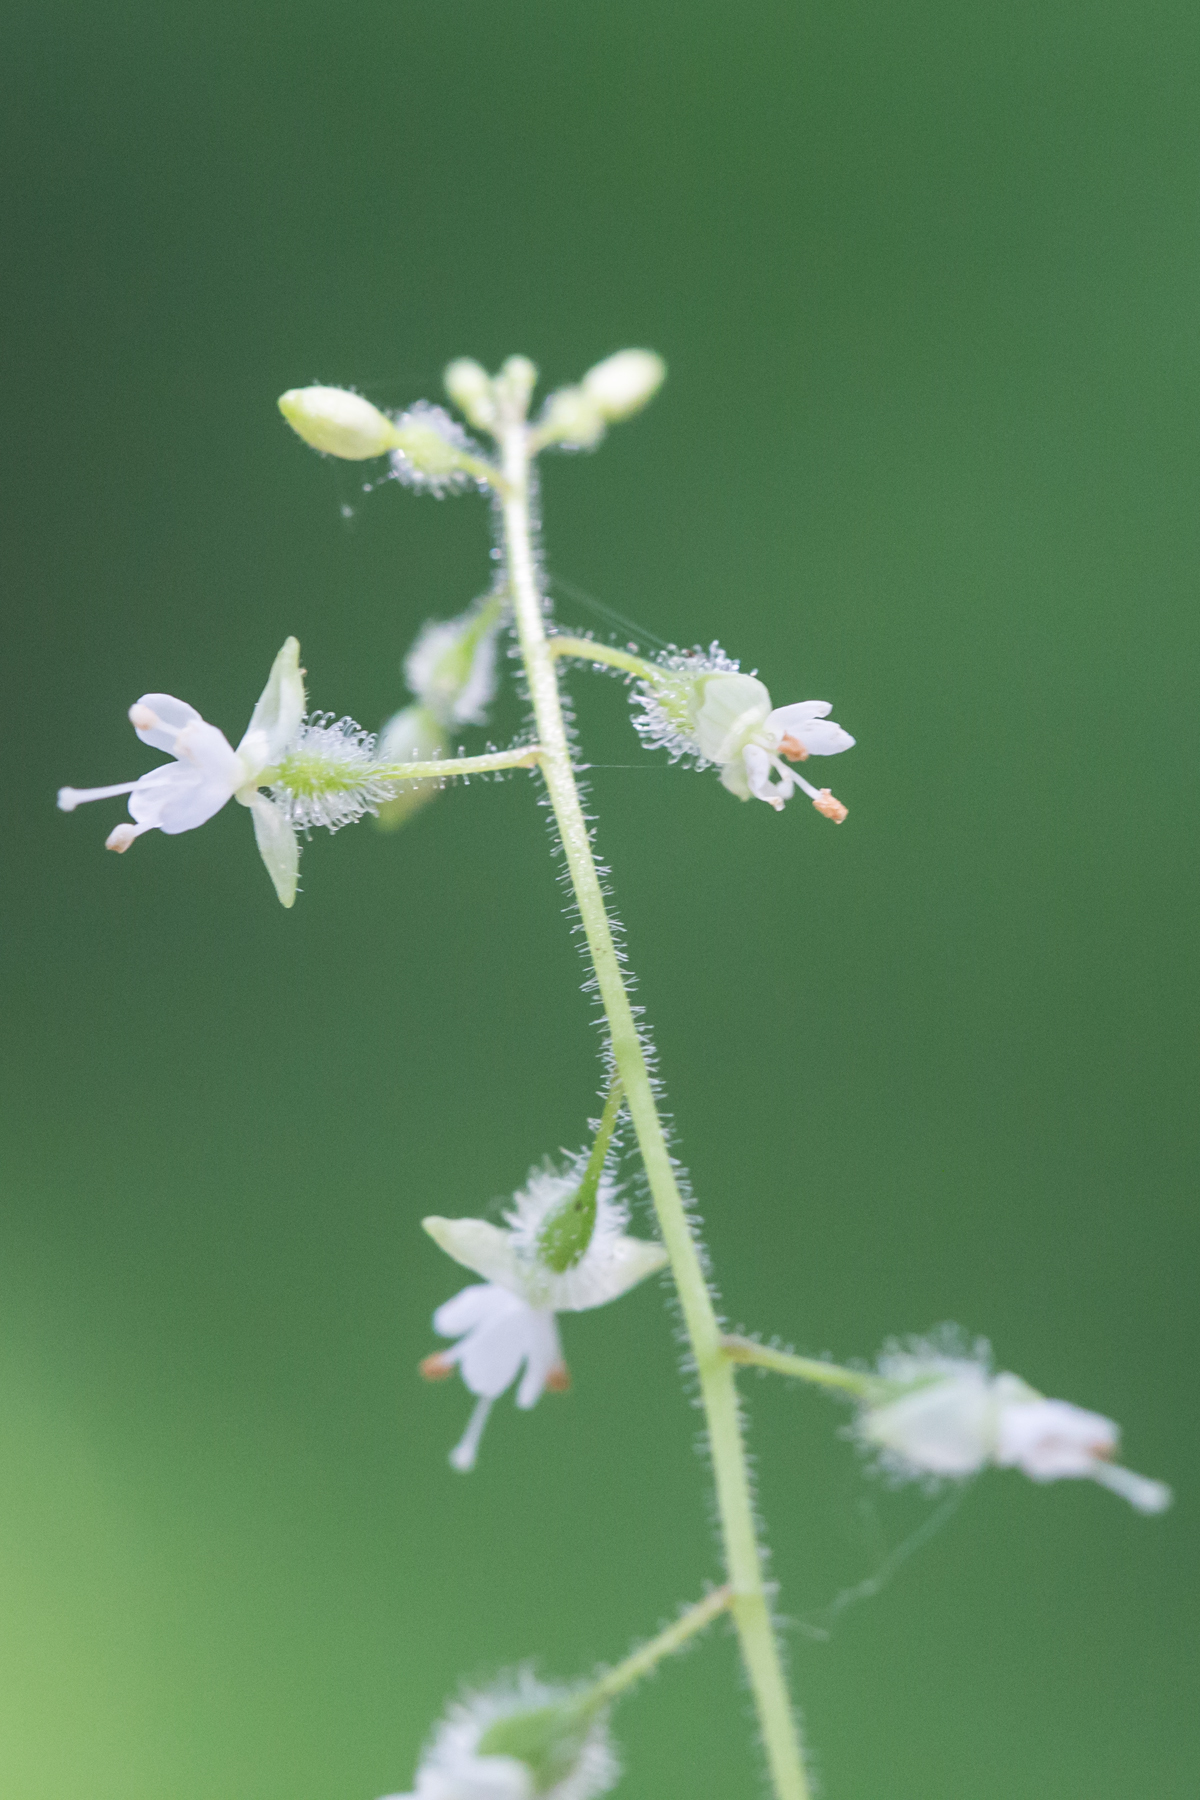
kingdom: Plantae
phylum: Tracheophyta
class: Magnoliopsida
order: Myrtales
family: Onagraceae
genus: Circaea
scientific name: Circaea canadensis
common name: Broad-leaved enchanter's nightshade
